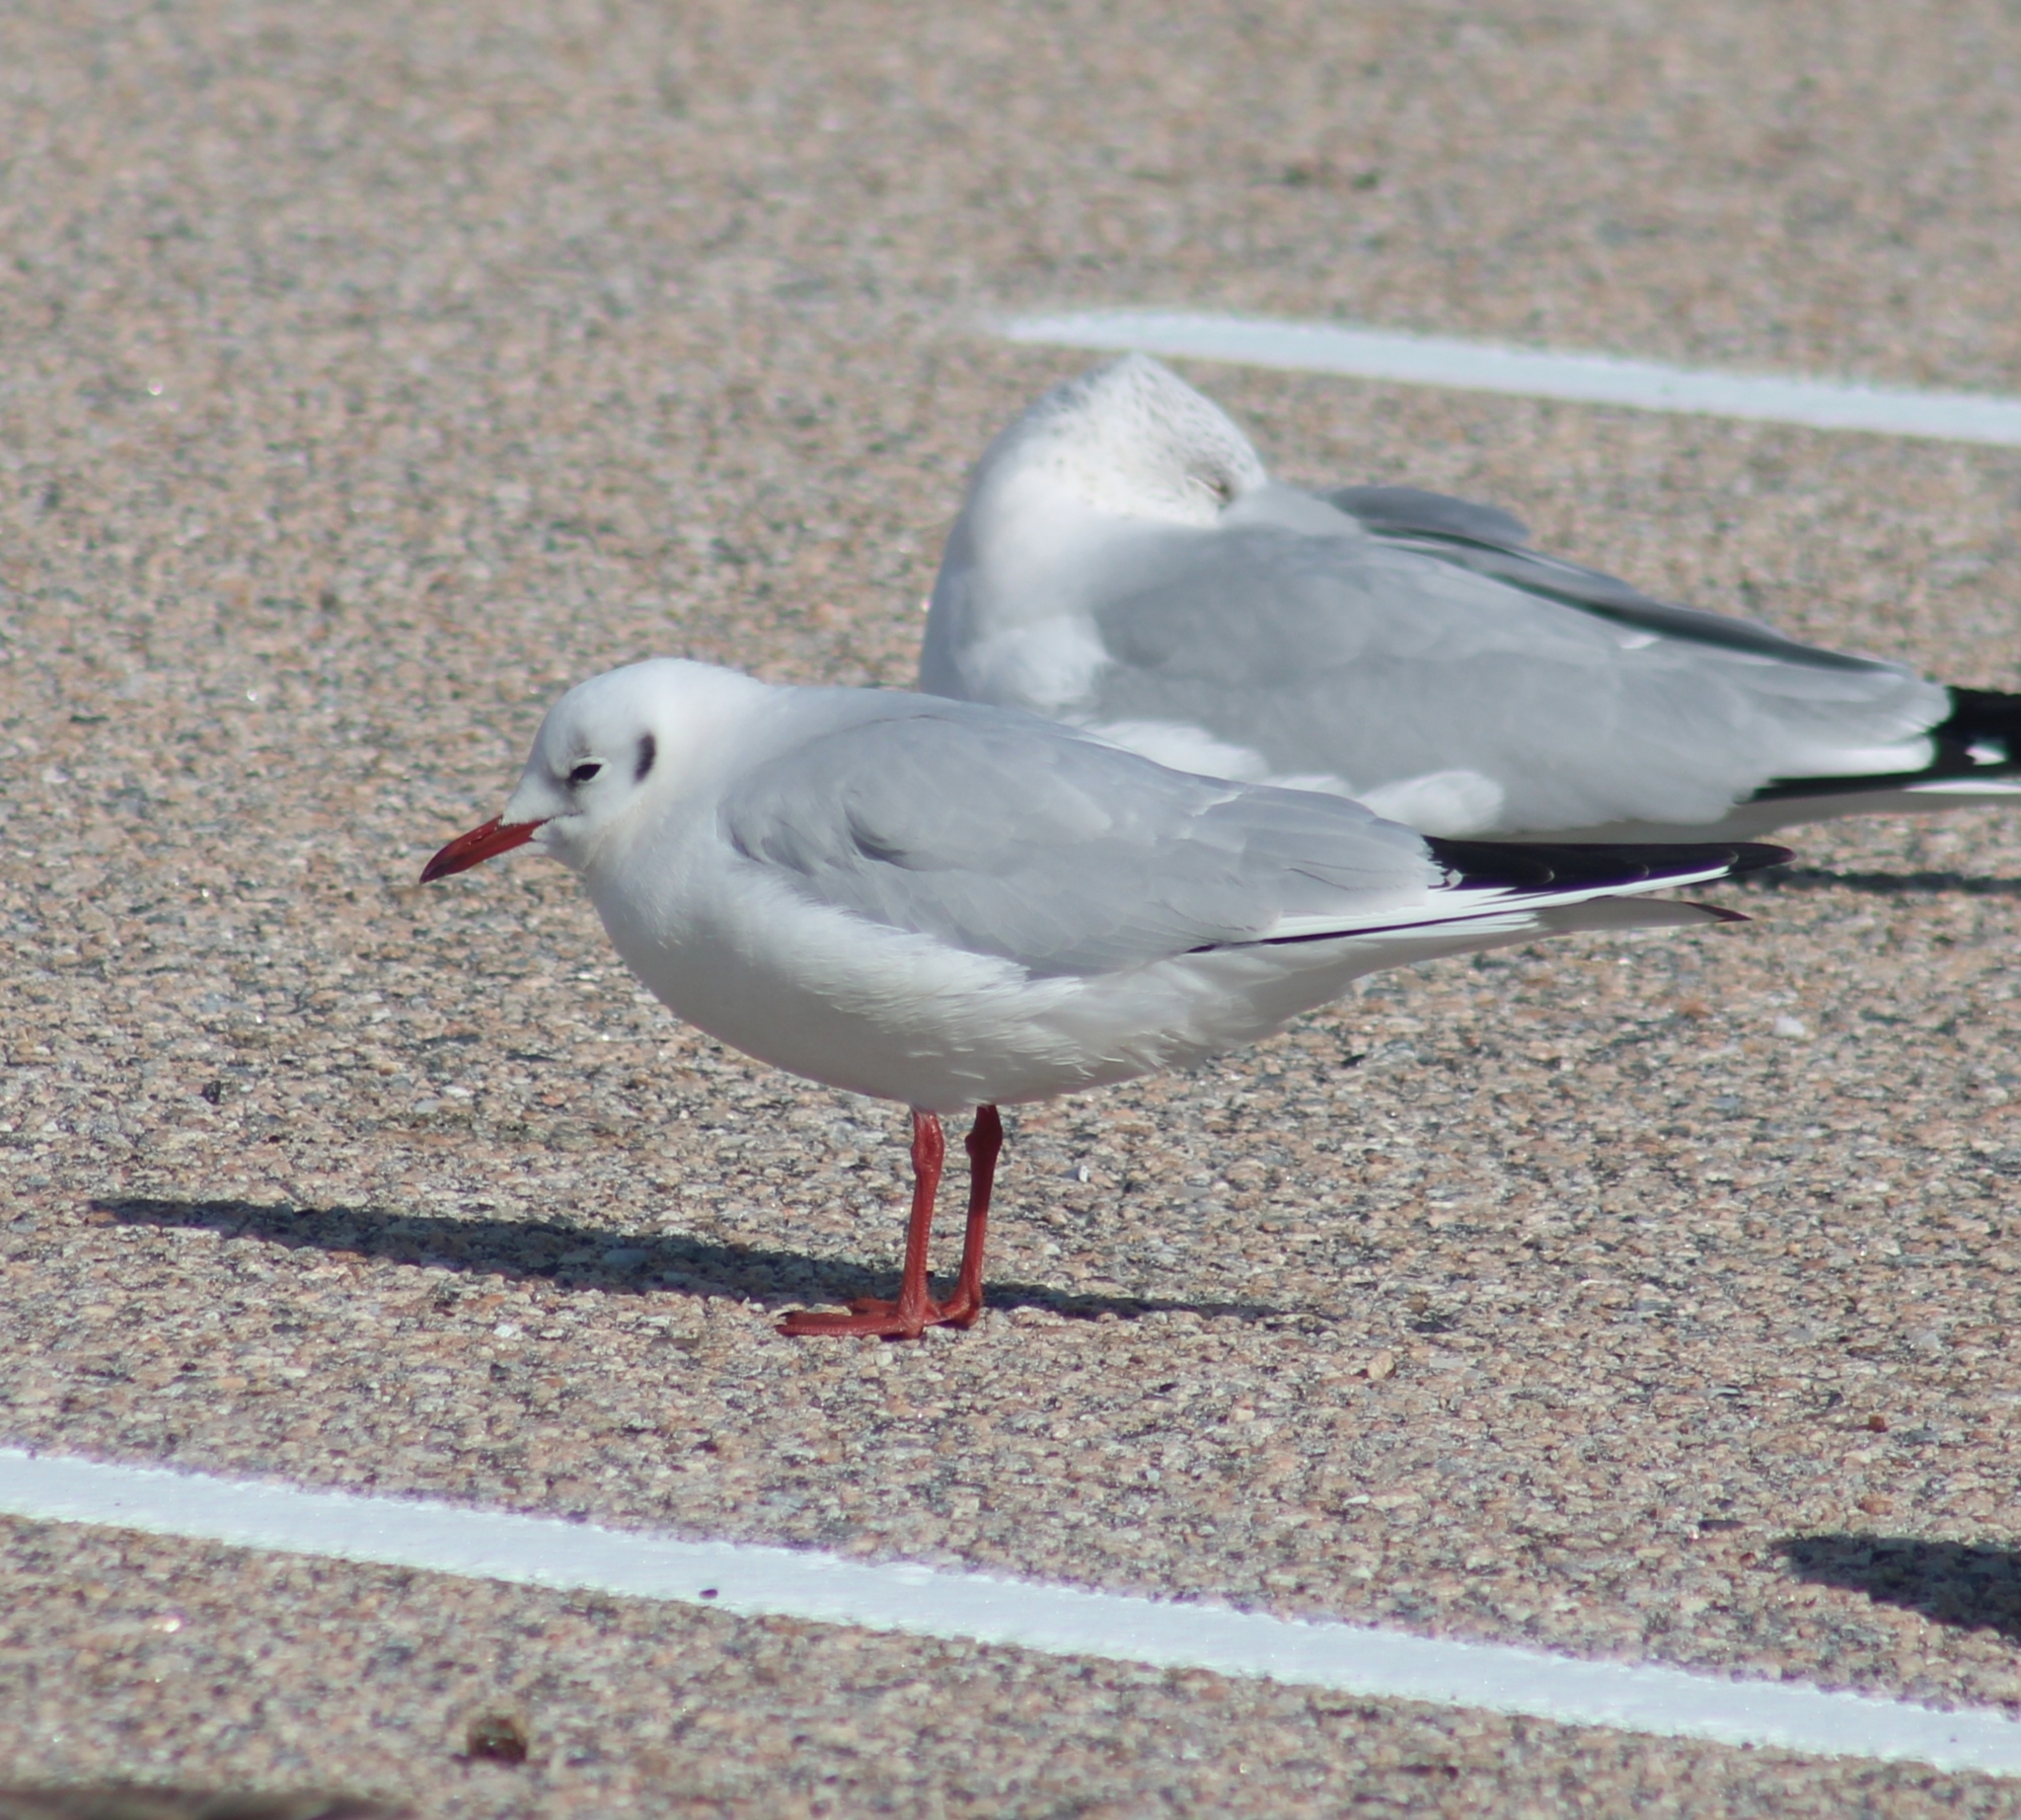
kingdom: Animalia
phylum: Chordata
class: Aves
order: Charadriiformes
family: Laridae
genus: Chroicocephalus
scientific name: Chroicocephalus ridibundus
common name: Black-headed gull
